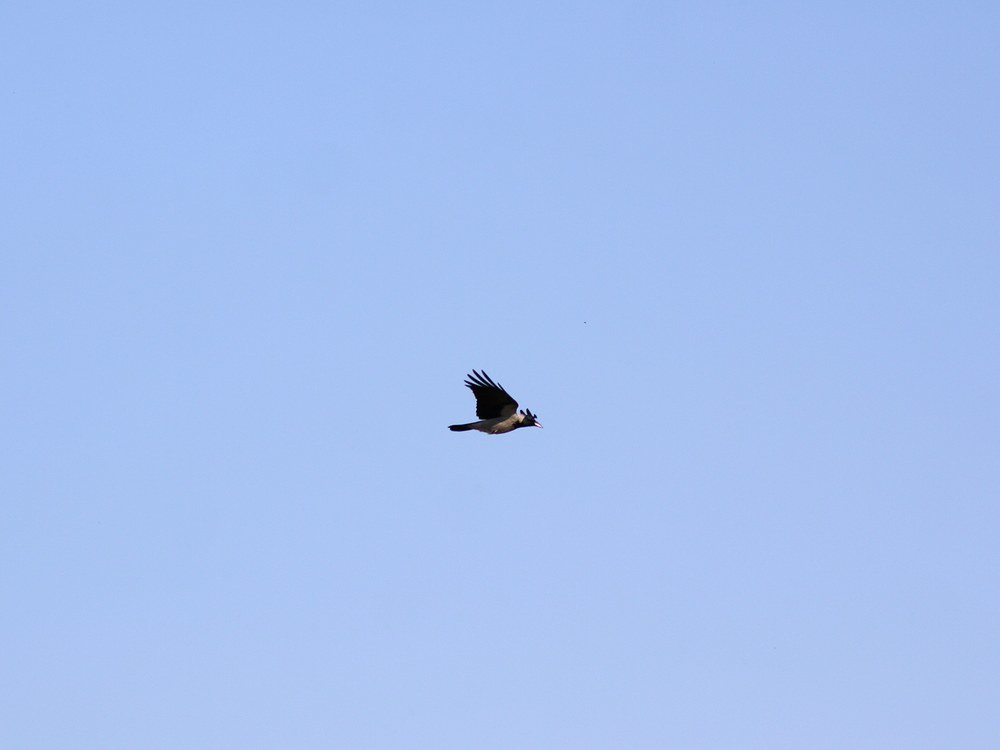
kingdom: Animalia
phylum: Chordata
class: Aves
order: Passeriformes
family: Corvidae
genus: Corvus
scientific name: Corvus cornix
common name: Hooded crow
